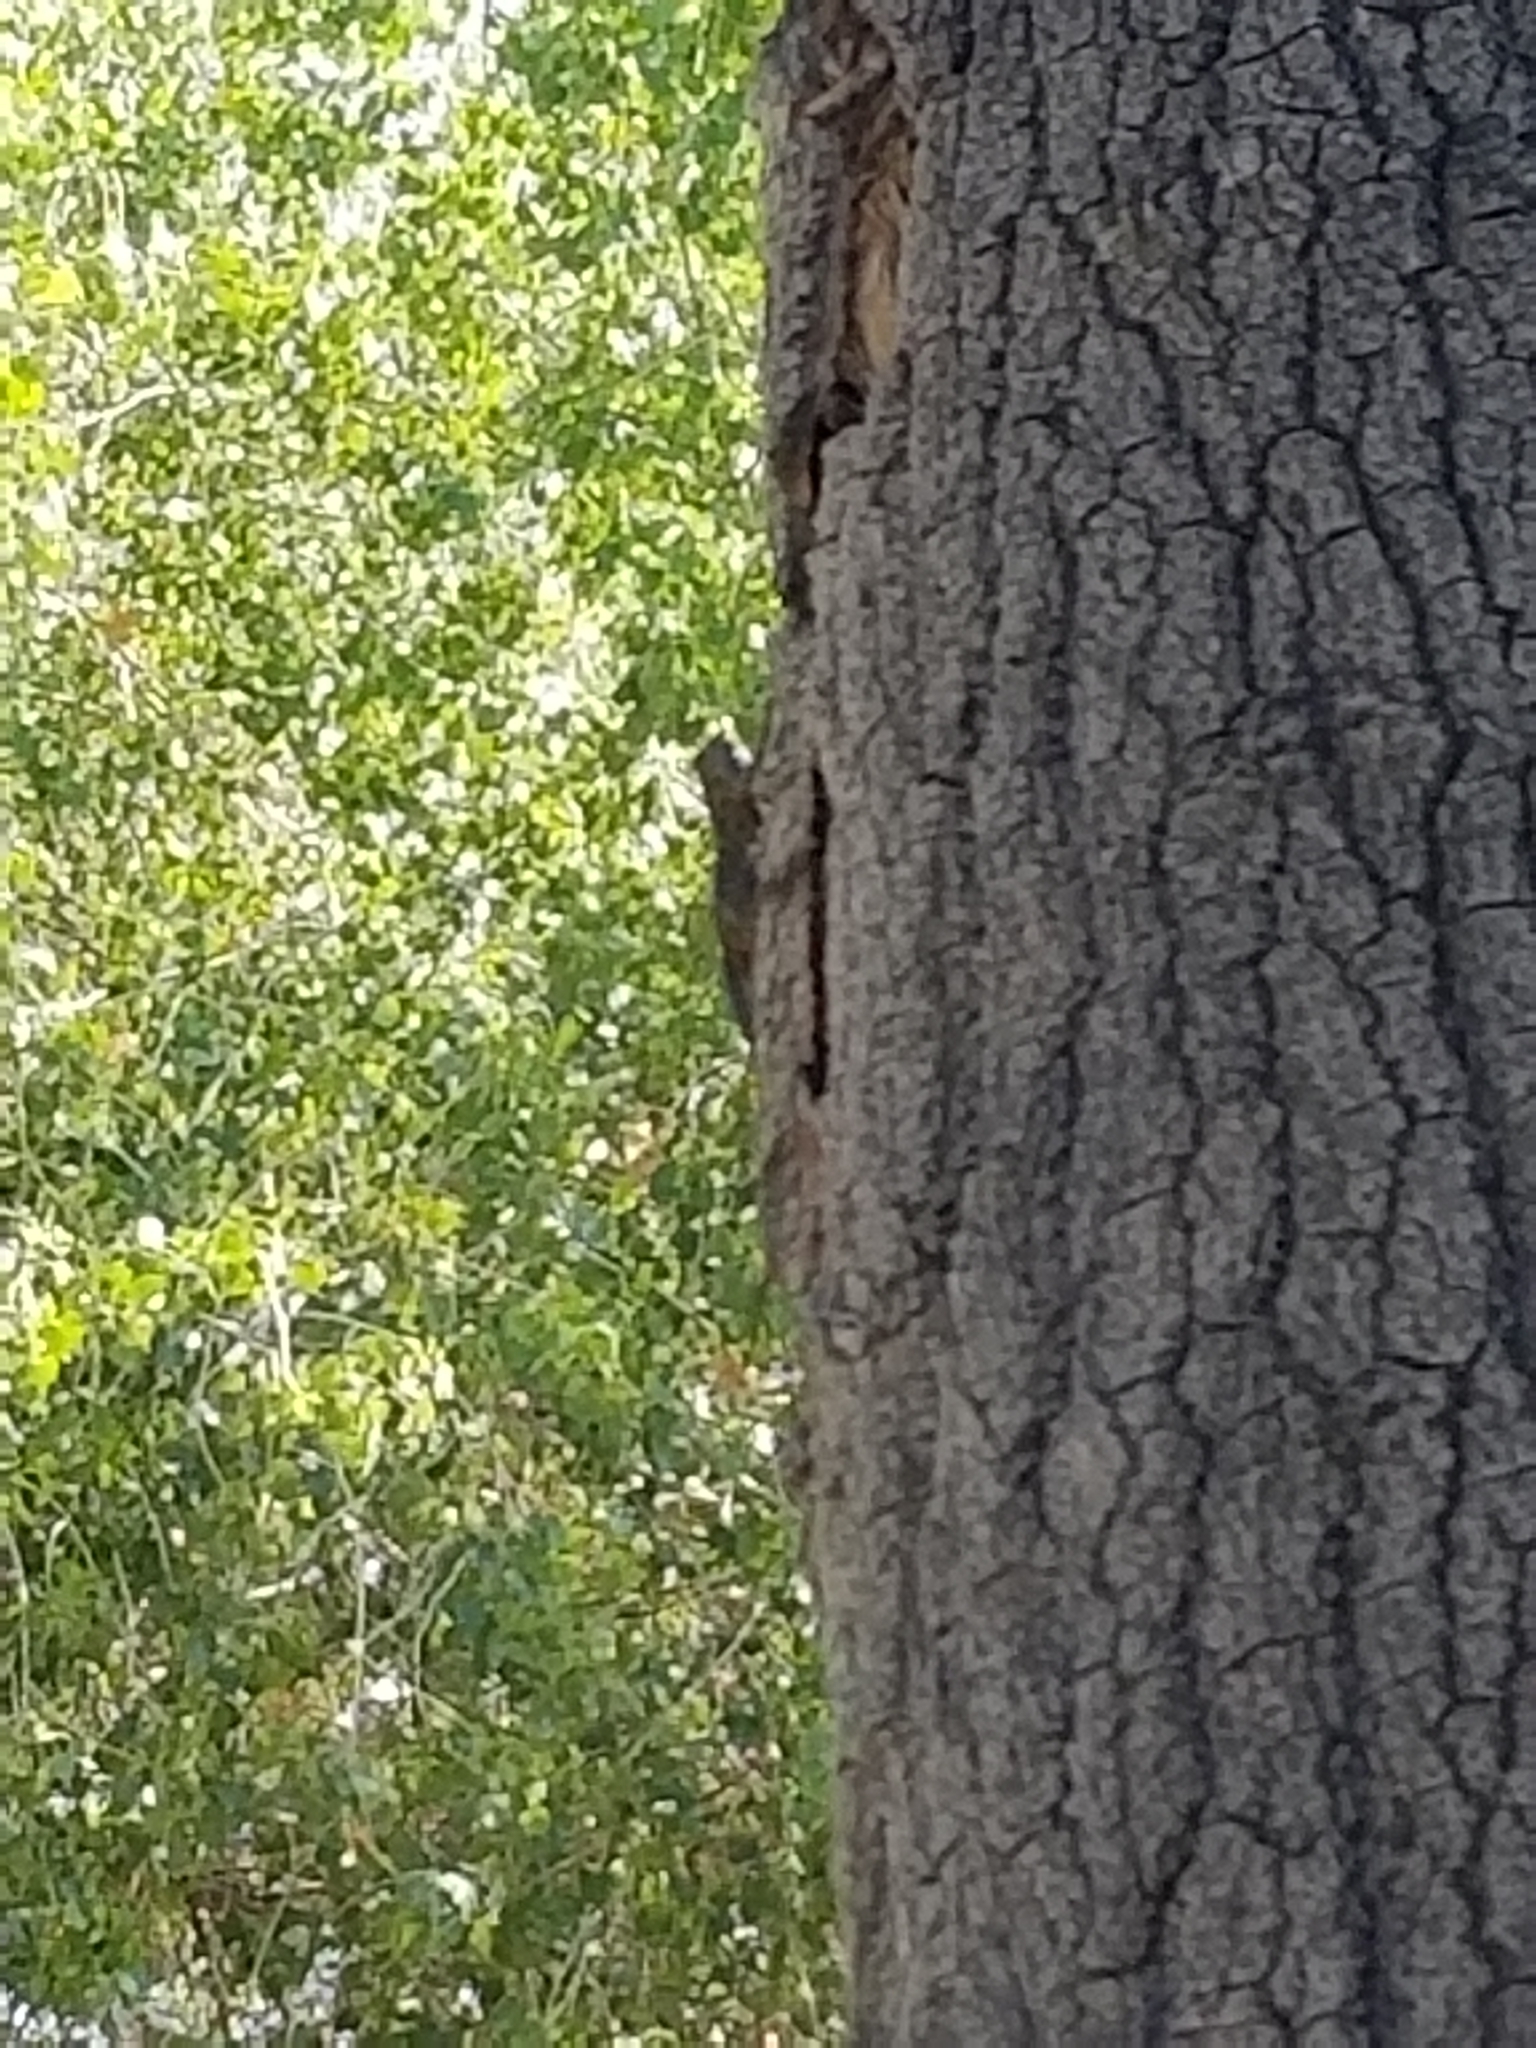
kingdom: Animalia
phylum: Chordata
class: Squamata
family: Phrynosomatidae
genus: Sceloporus
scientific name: Sceloporus occidentalis
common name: Western fence lizard
